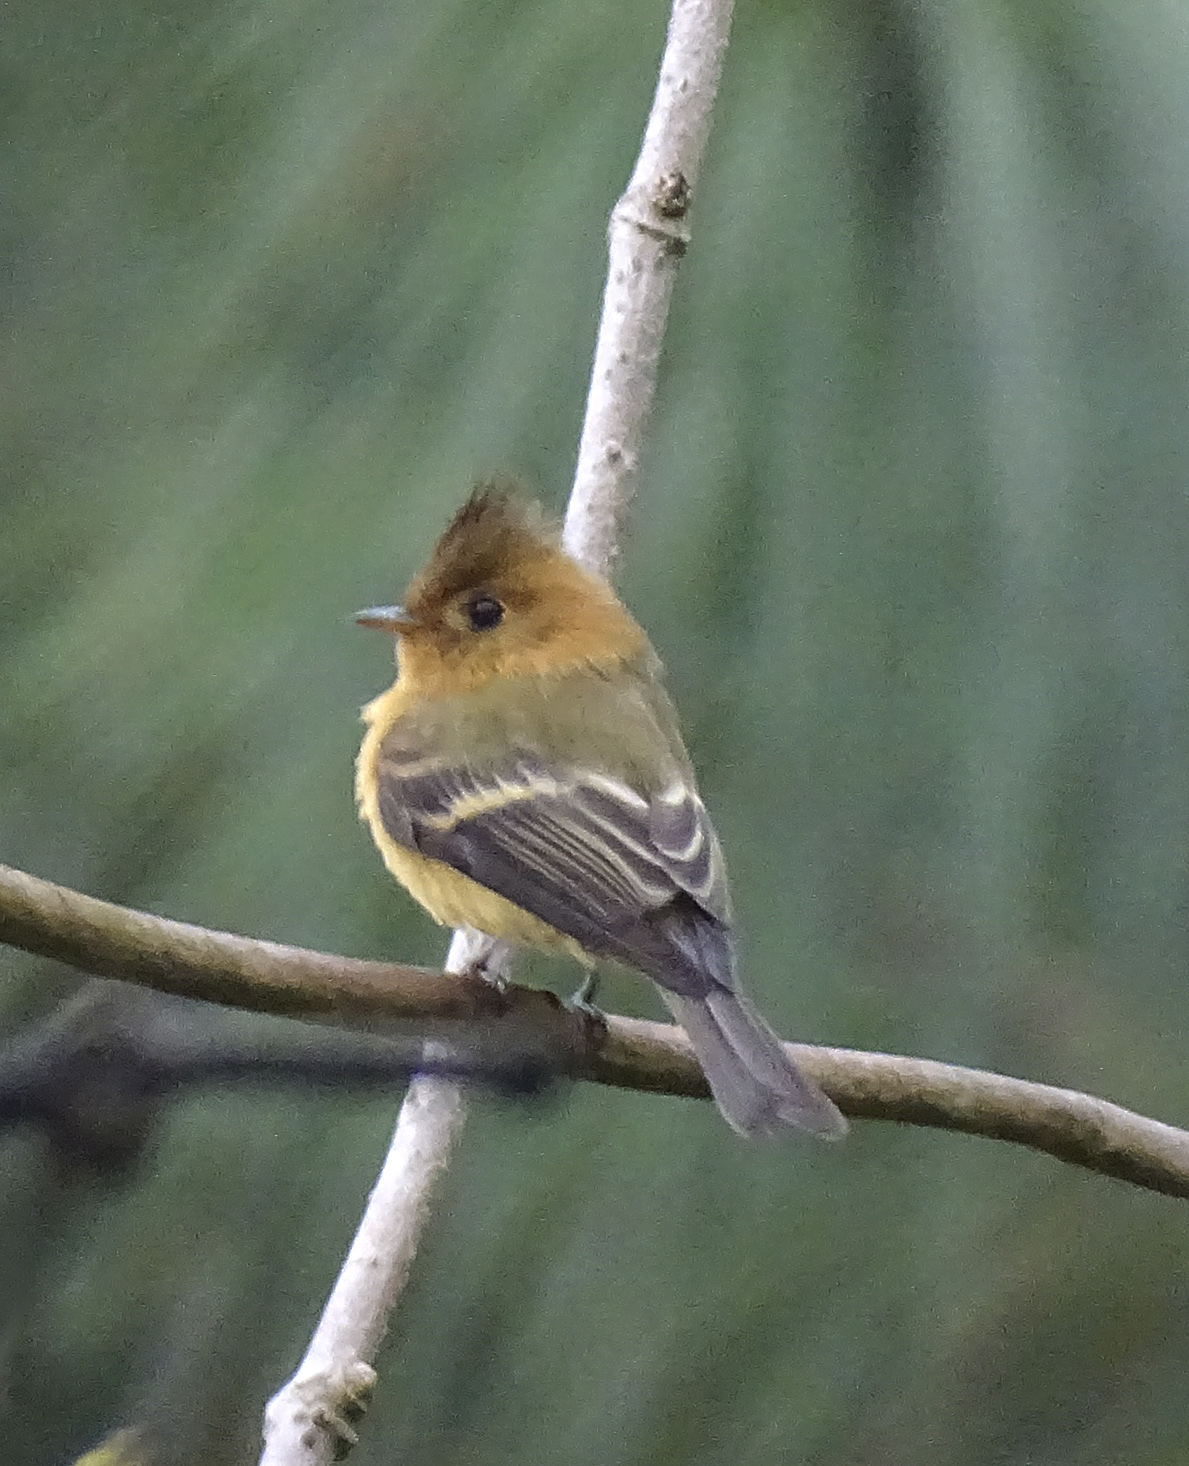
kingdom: Animalia
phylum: Chordata
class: Aves
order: Passeriformes
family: Tyrannidae
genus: Mitrephanes
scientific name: Mitrephanes phaeocercus
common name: Northern tufted flycatcher
